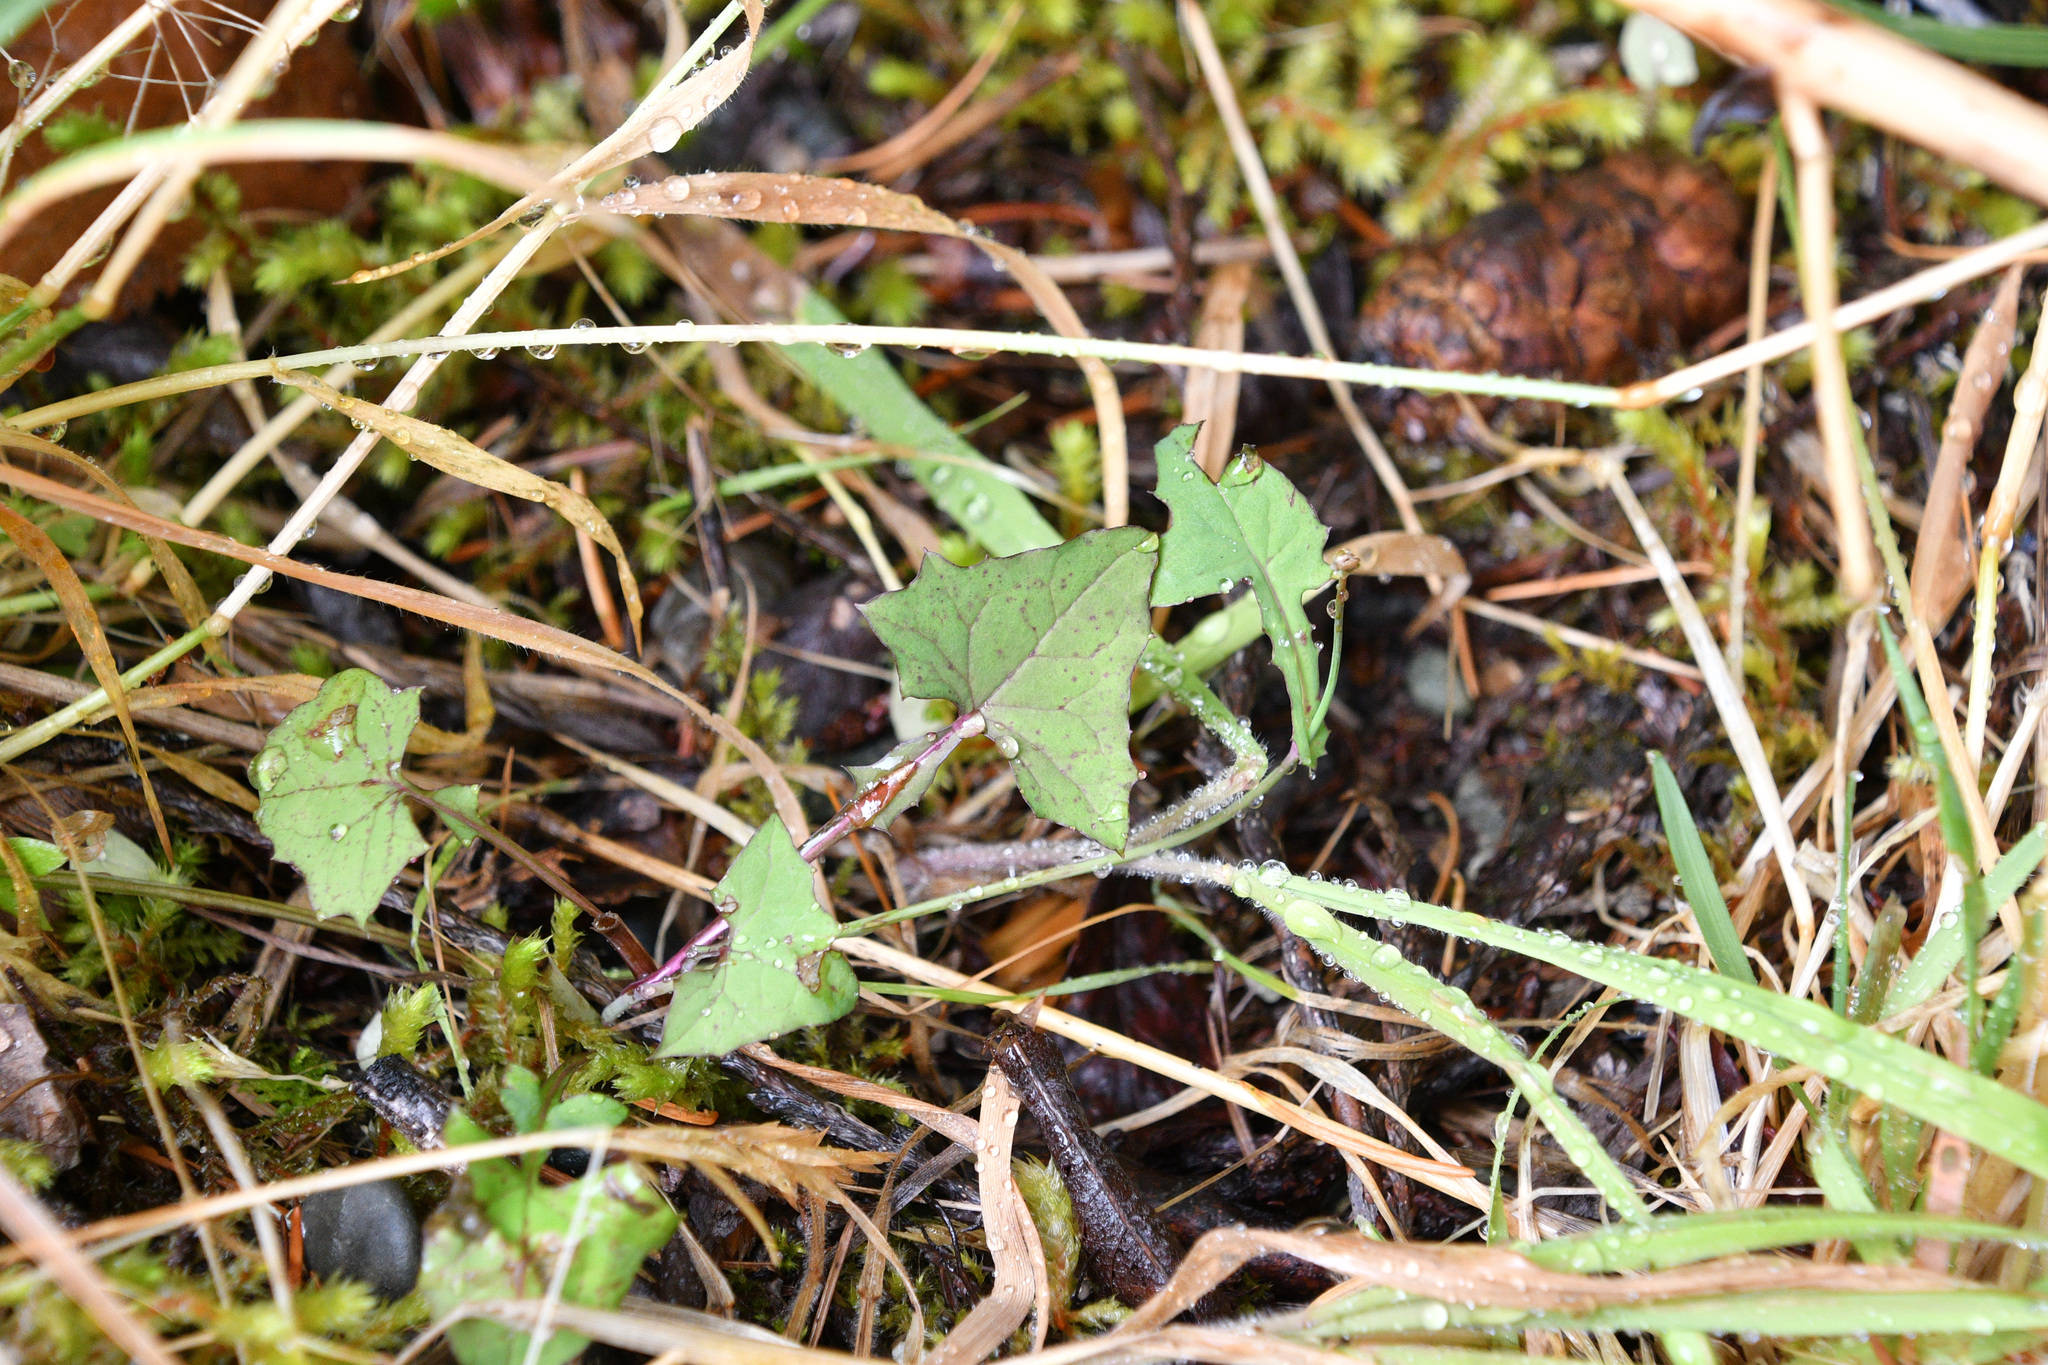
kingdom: Plantae
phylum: Tracheophyta
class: Magnoliopsida
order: Asterales
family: Asteraceae
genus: Mycelis
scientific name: Mycelis muralis
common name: Wall lettuce
